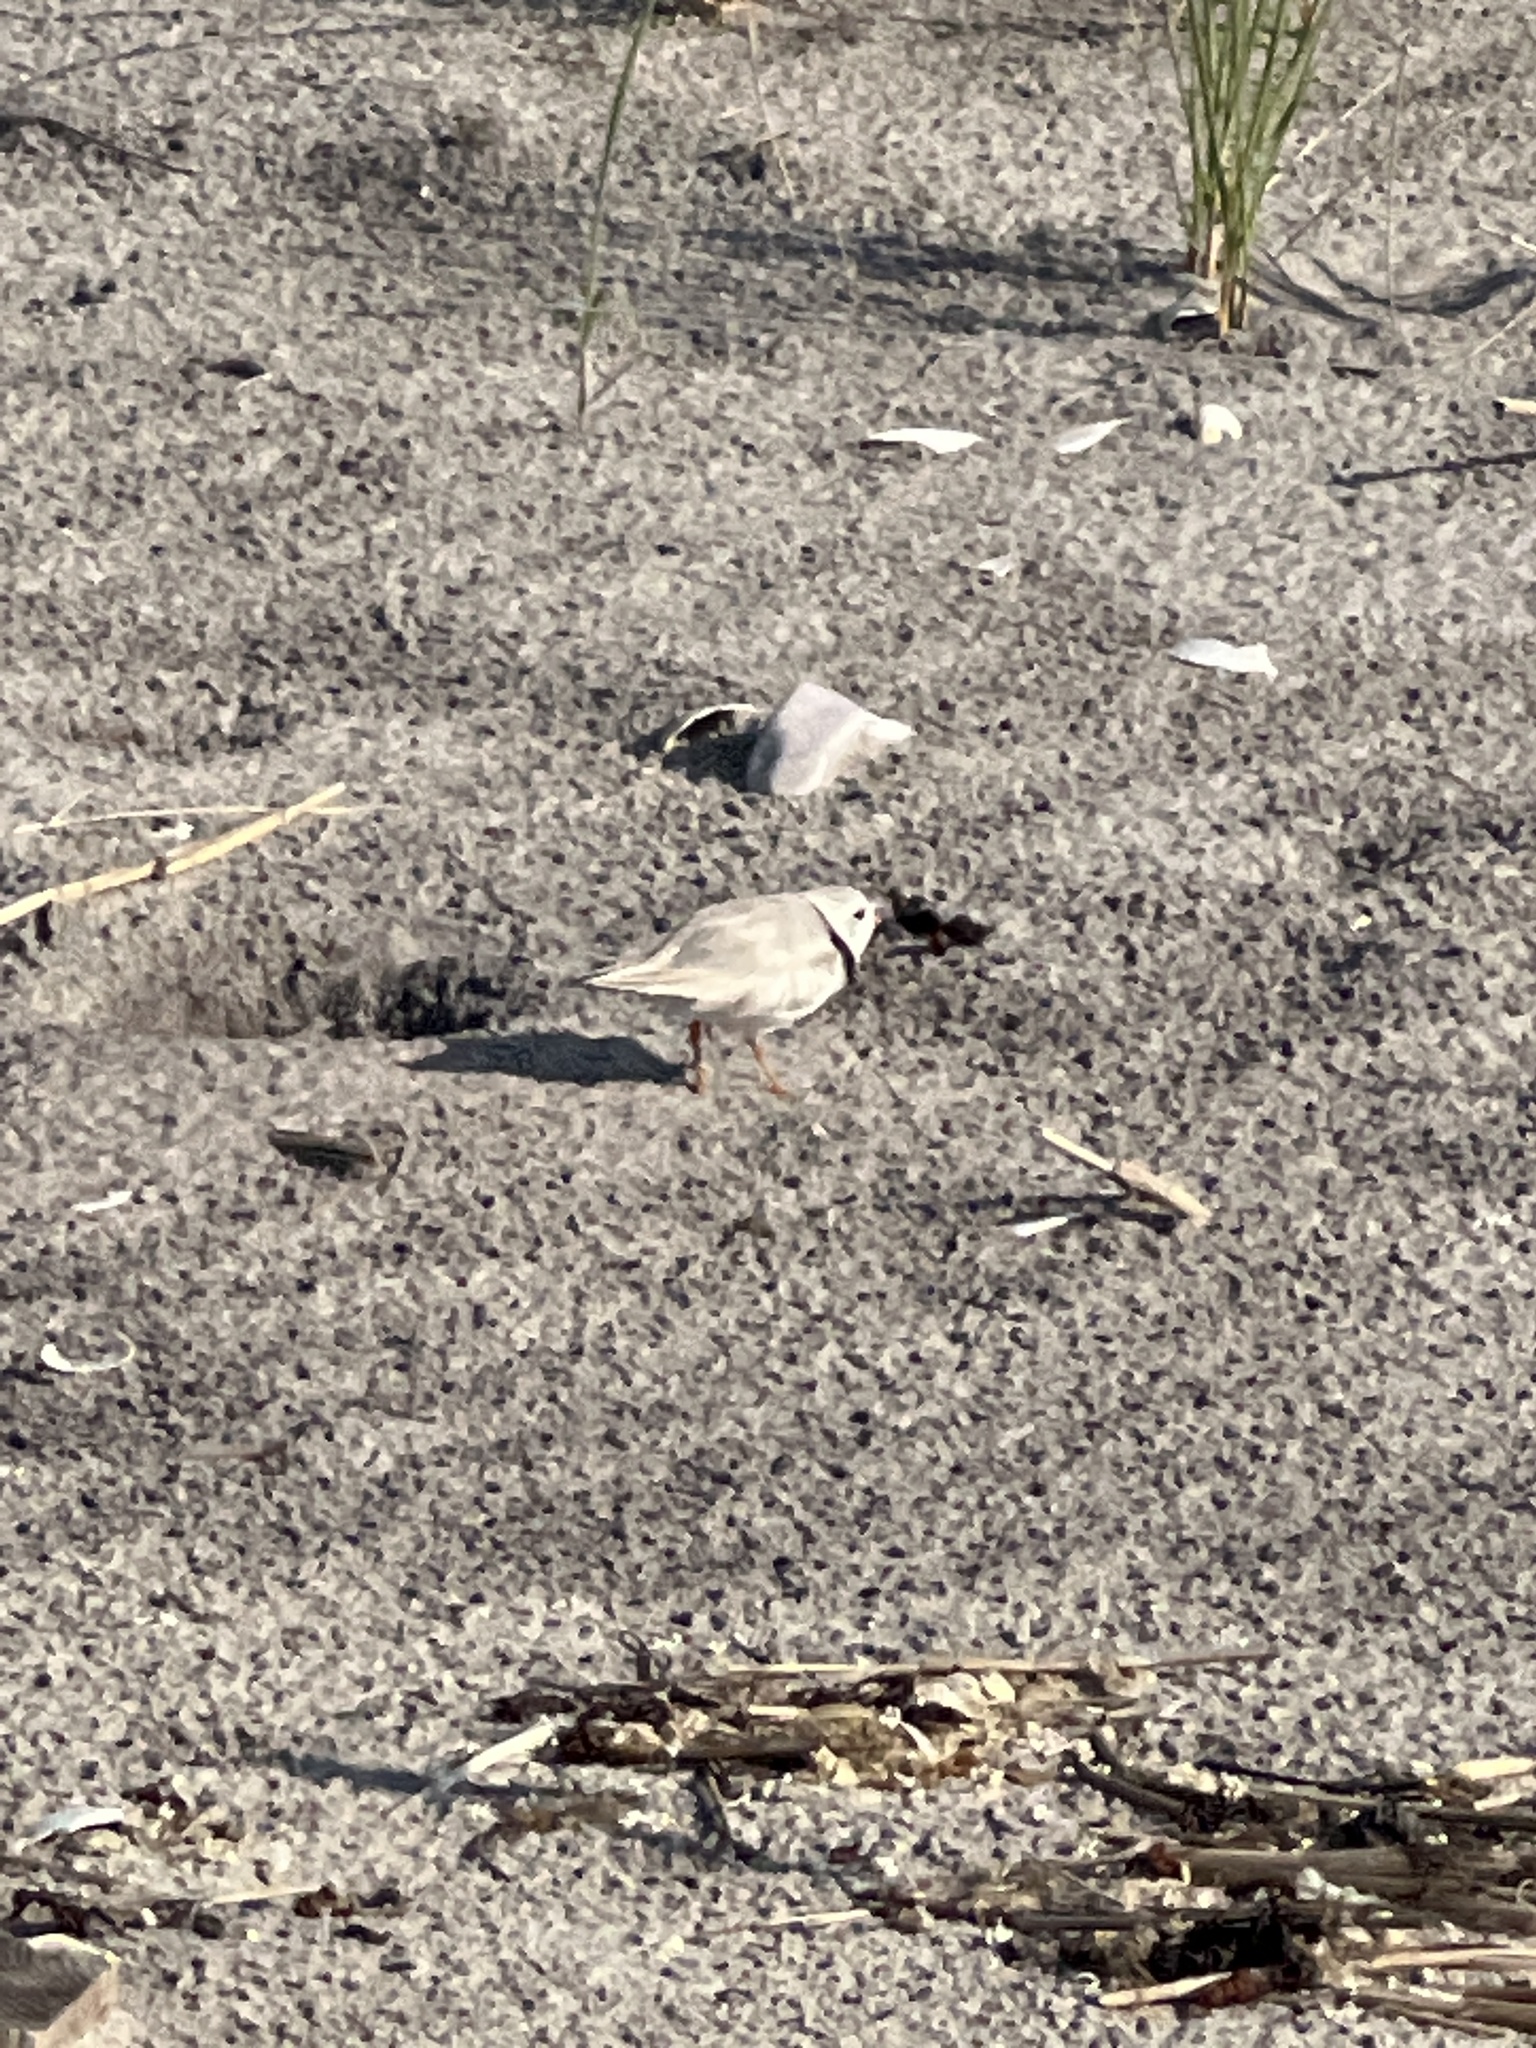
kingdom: Animalia
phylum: Chordata
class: Aves
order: Charadriiformes
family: Charadriidae
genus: Charadrius
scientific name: Charadrius melodus
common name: Piping plover
